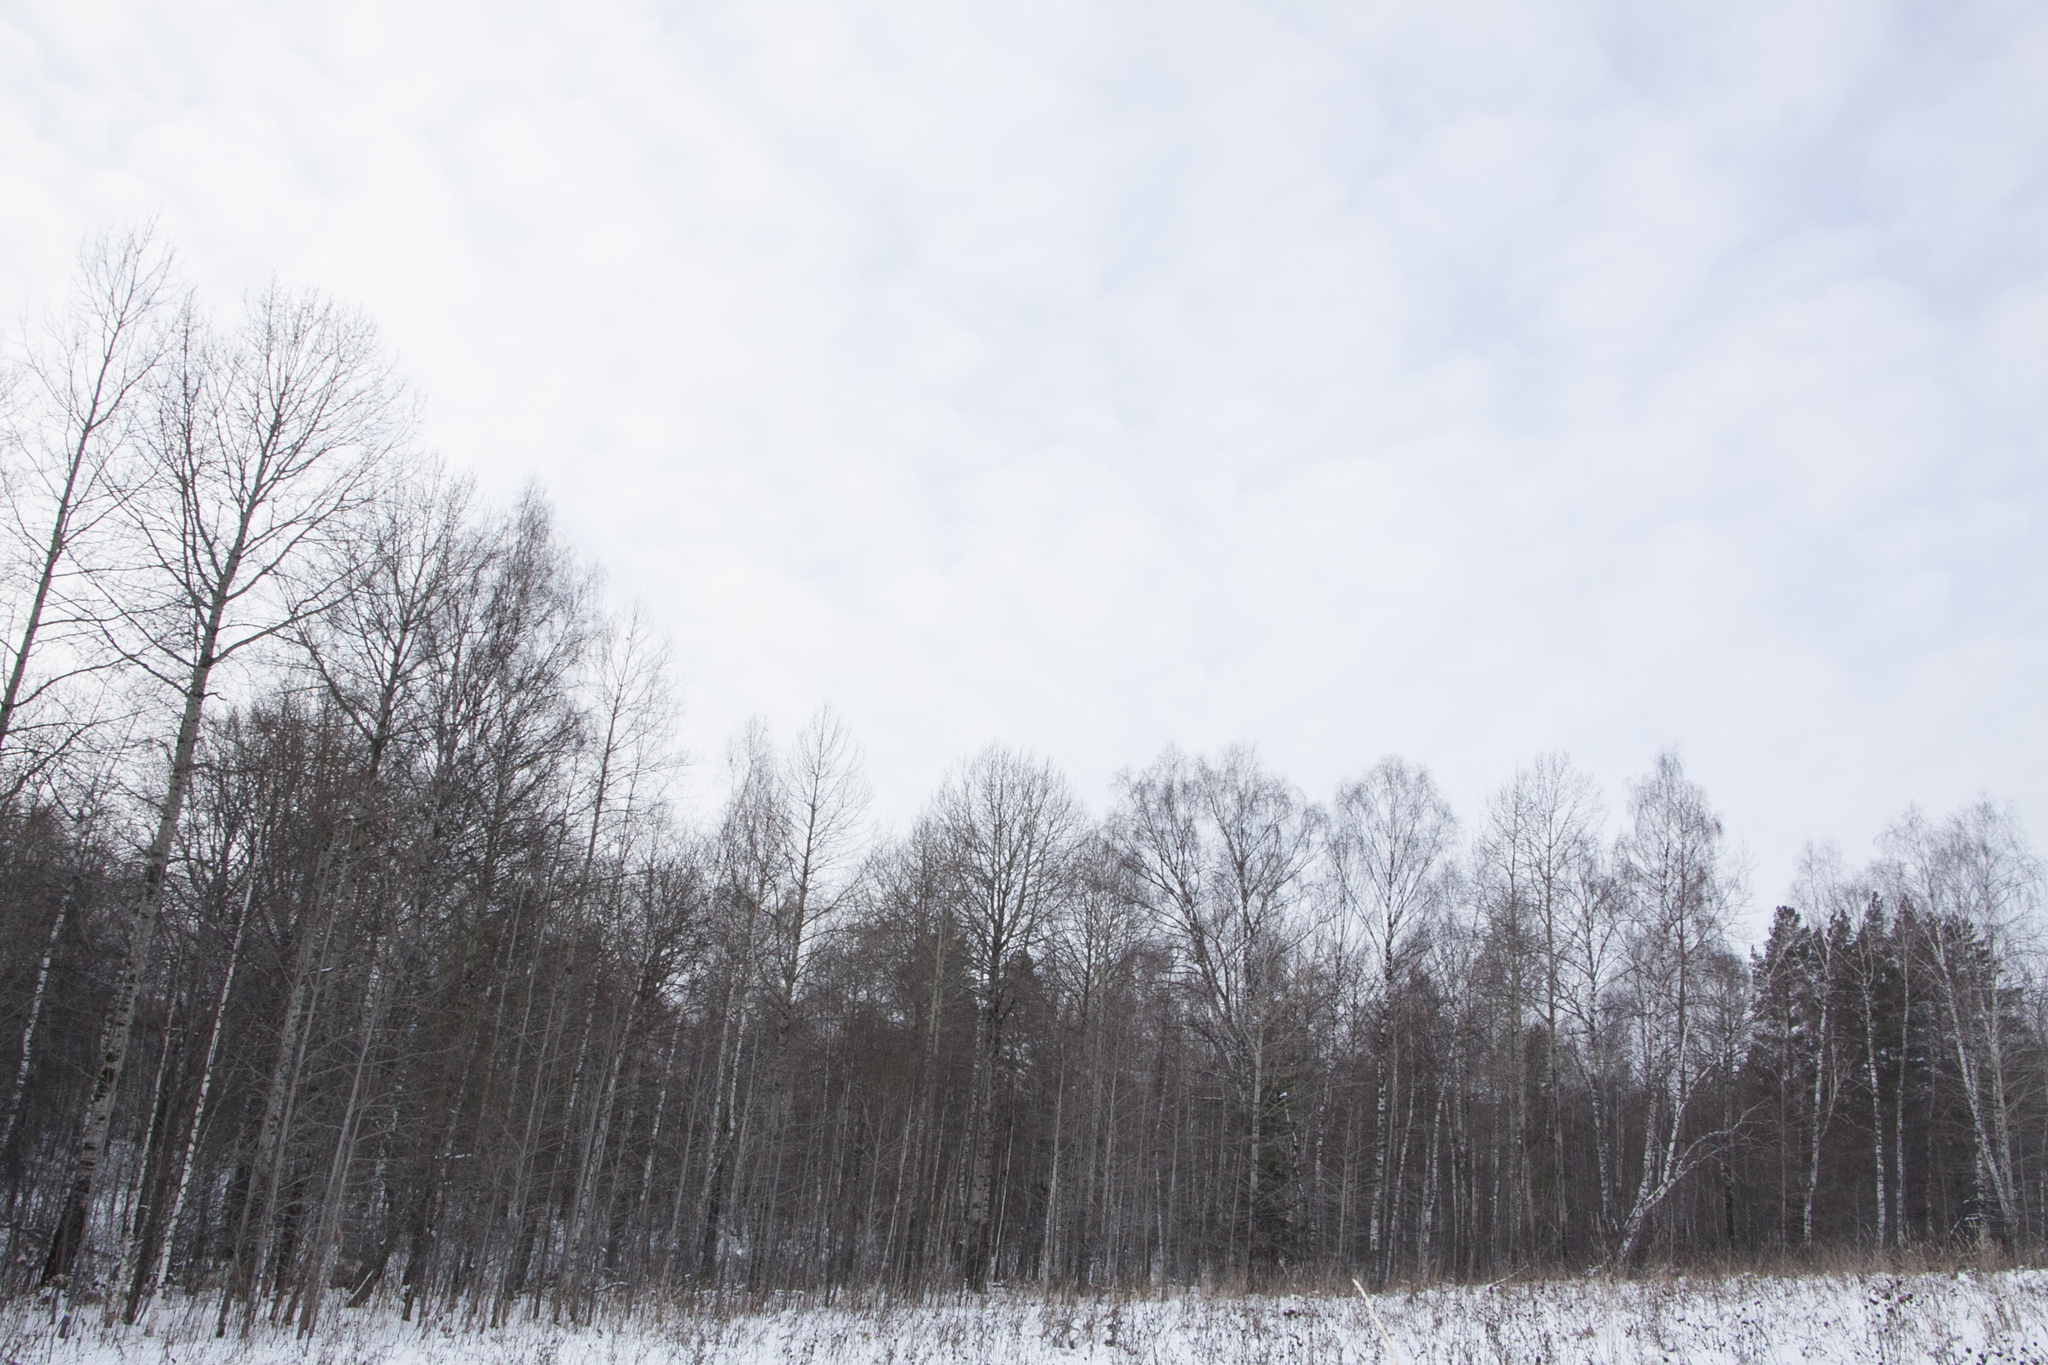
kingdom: Plantae
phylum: Tracheophyta
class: Magnoliopsida
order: Malpighiales
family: Salicaceae
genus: Populus
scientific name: Populus tremula
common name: European aspen
